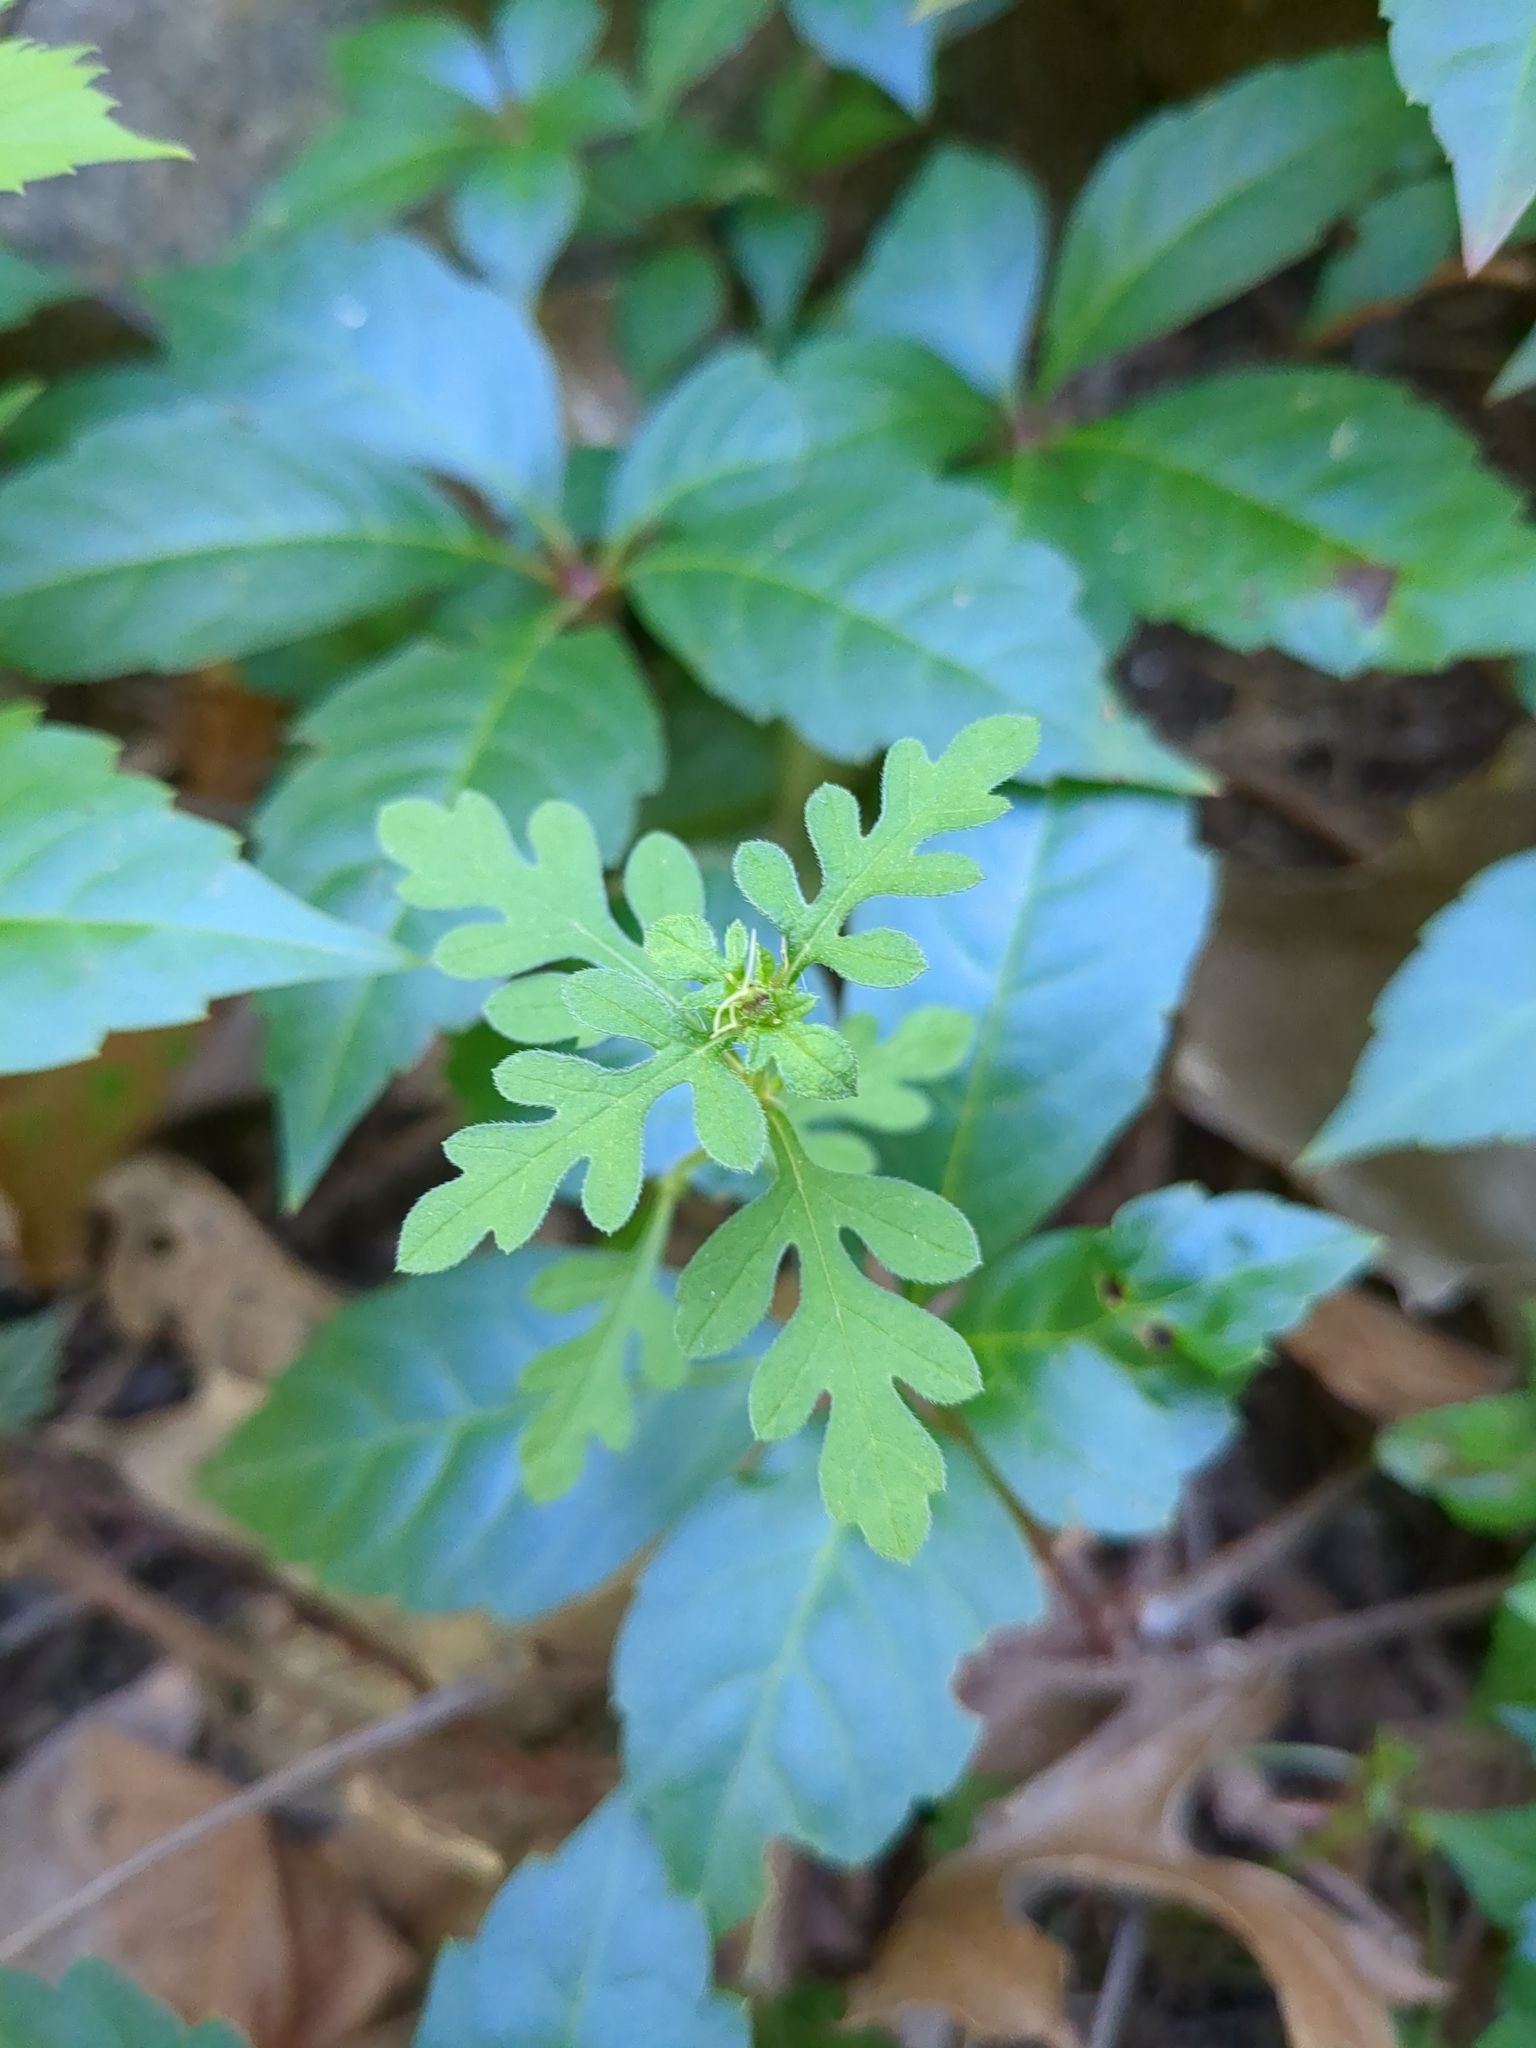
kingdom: Plantae
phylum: Tracheophyta
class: Magnoliopsida
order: Asterales
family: Asteraceae
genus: Ambrosia
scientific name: Ambrosia artemisiifolia
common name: Annual ragweed
